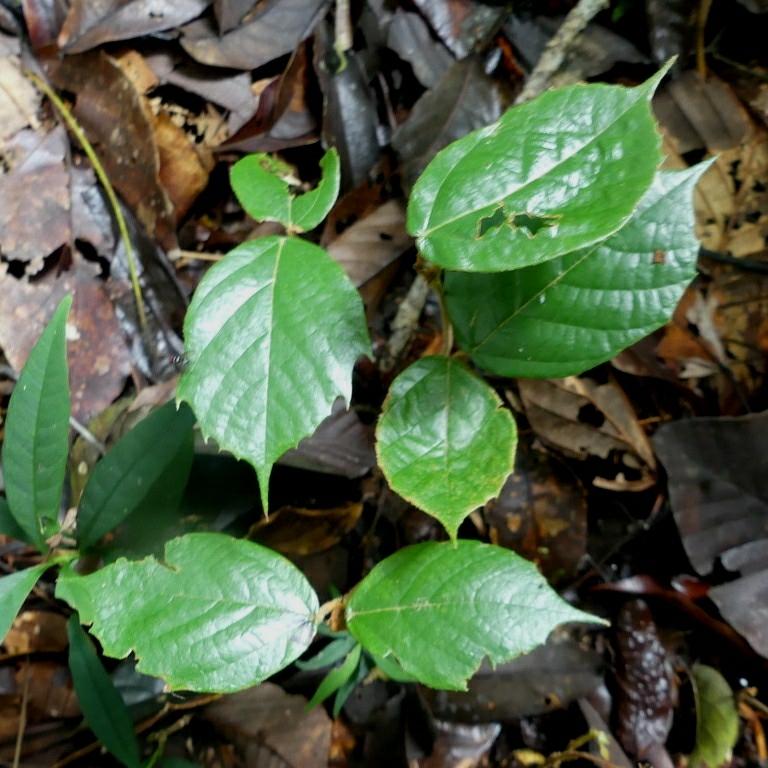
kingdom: Plantae
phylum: Tracheophyta
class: Magnoliopsida
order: Malvales
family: Malvaceae
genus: Theobroma
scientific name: Theobroma subincanum
